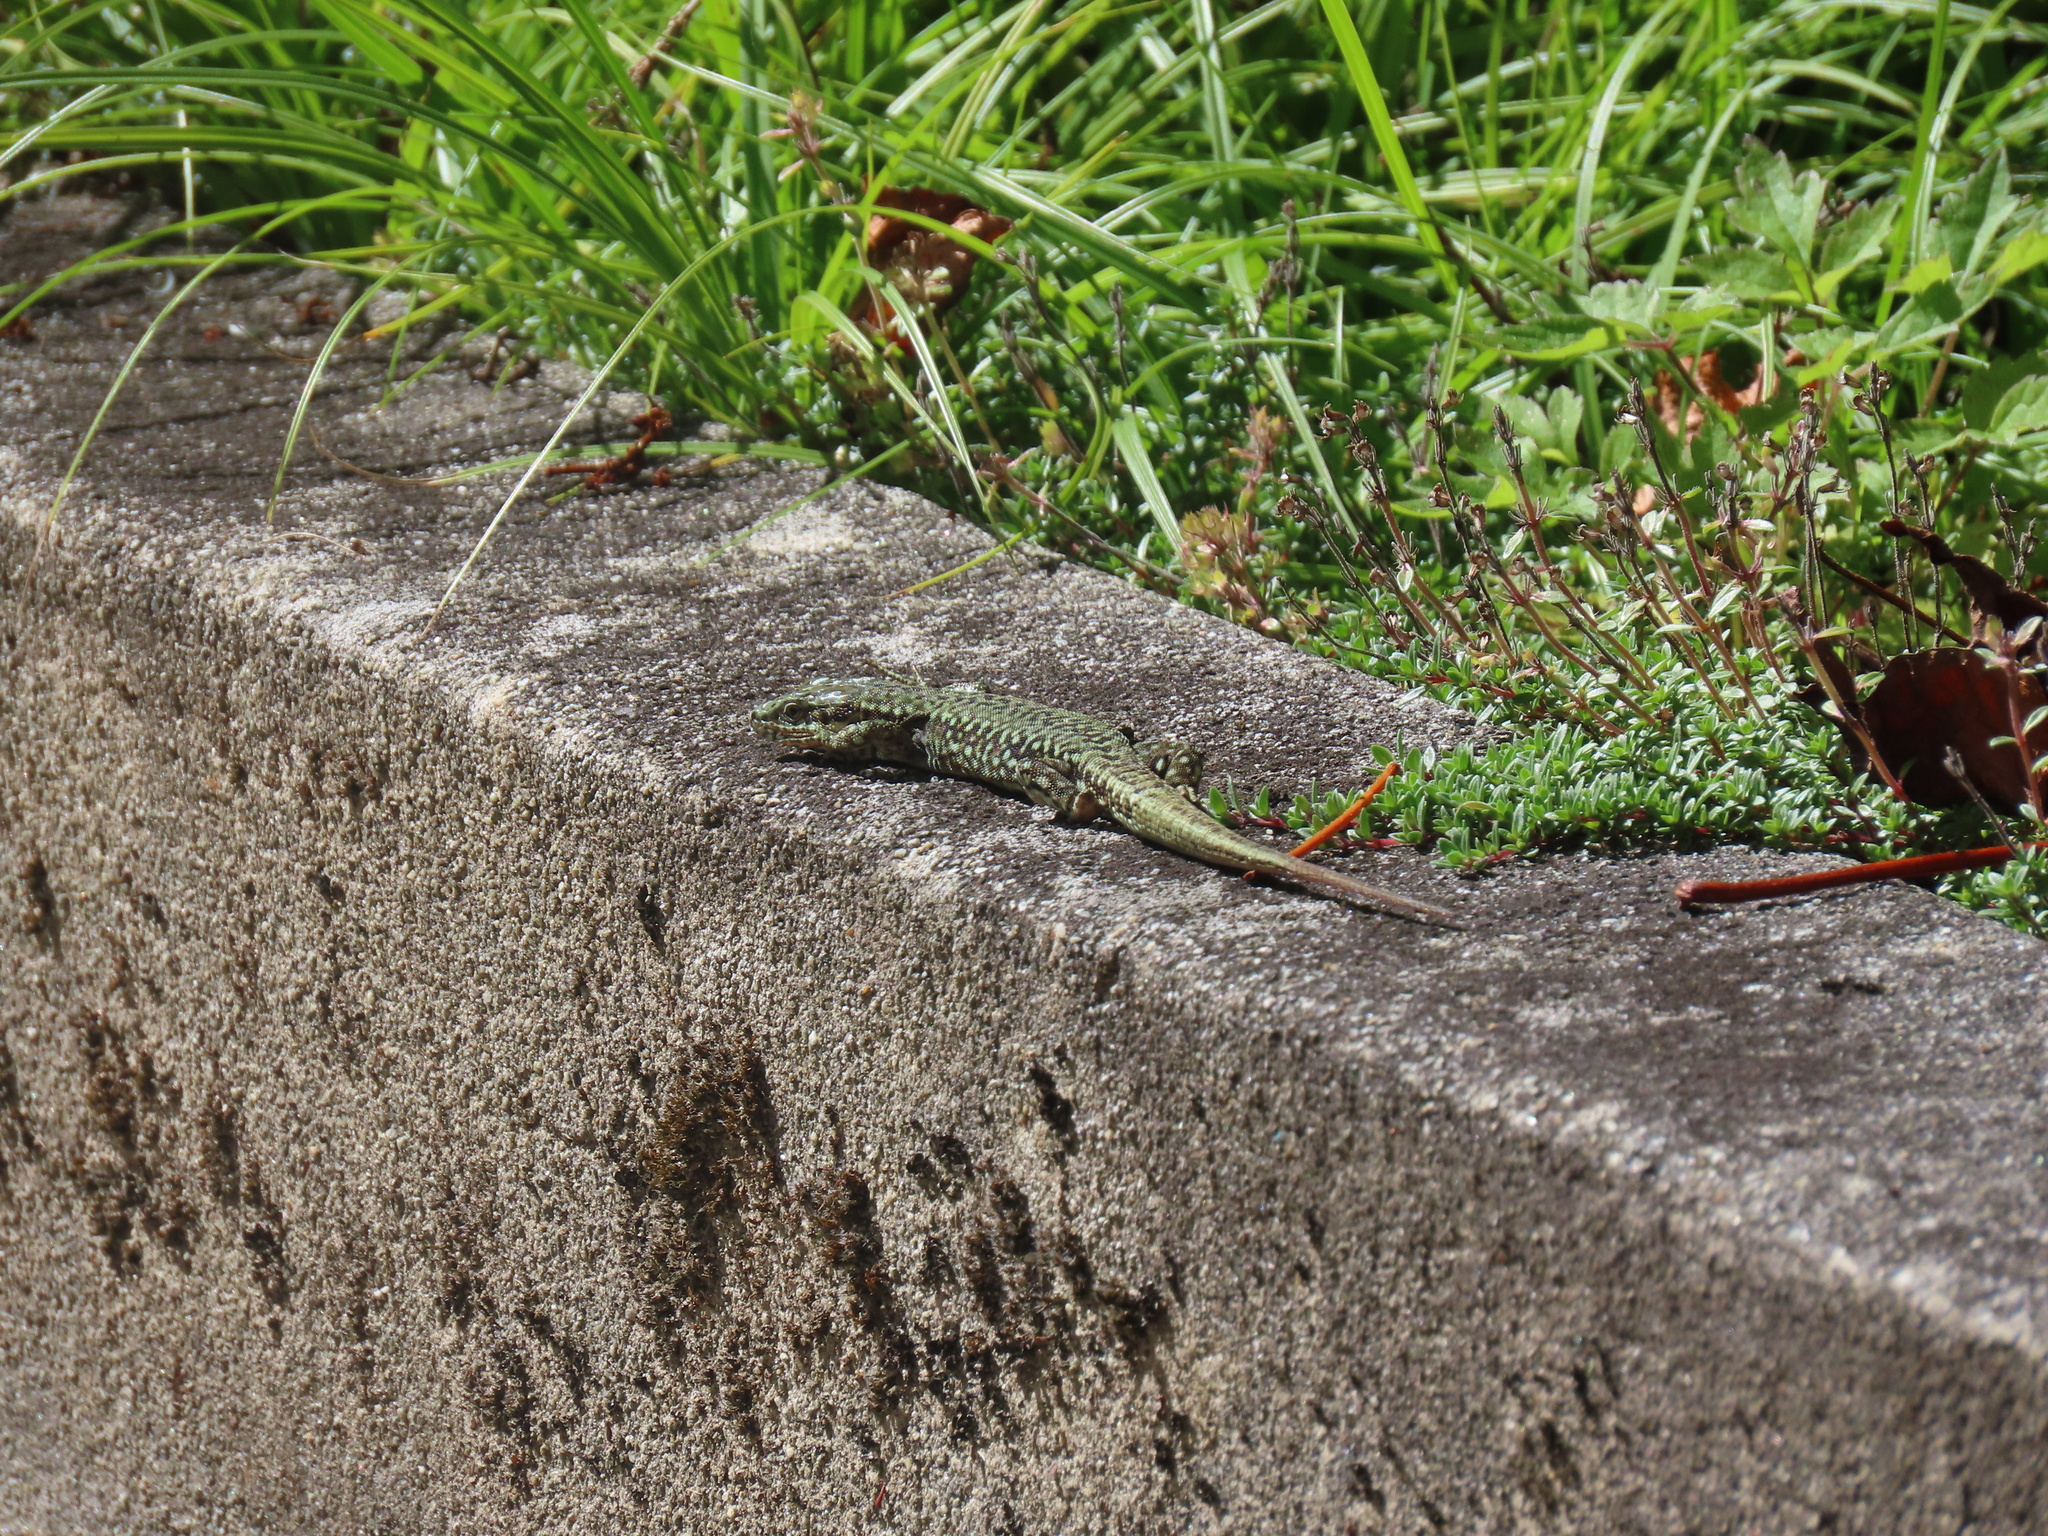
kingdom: Animalia
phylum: Chordata
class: Squamata
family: Lacertidae
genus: Podarcis
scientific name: Podarcis muralis
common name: Common wall lizard
